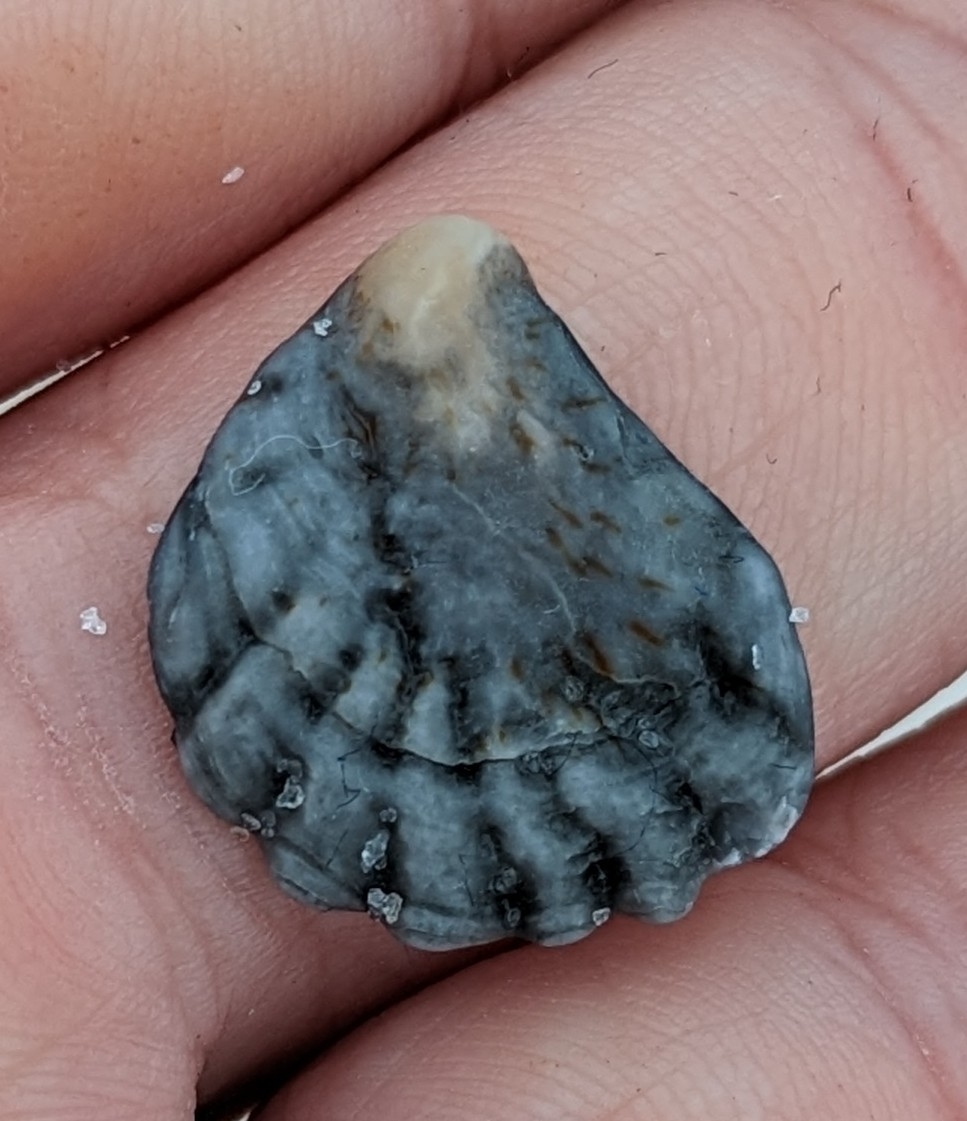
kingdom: Animalia
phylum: Mollusca
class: Bivalvia
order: Pectinida
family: Plicatulidae
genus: Plicatula
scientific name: Plicatula gibbosa
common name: Atlantic kitten's paw
